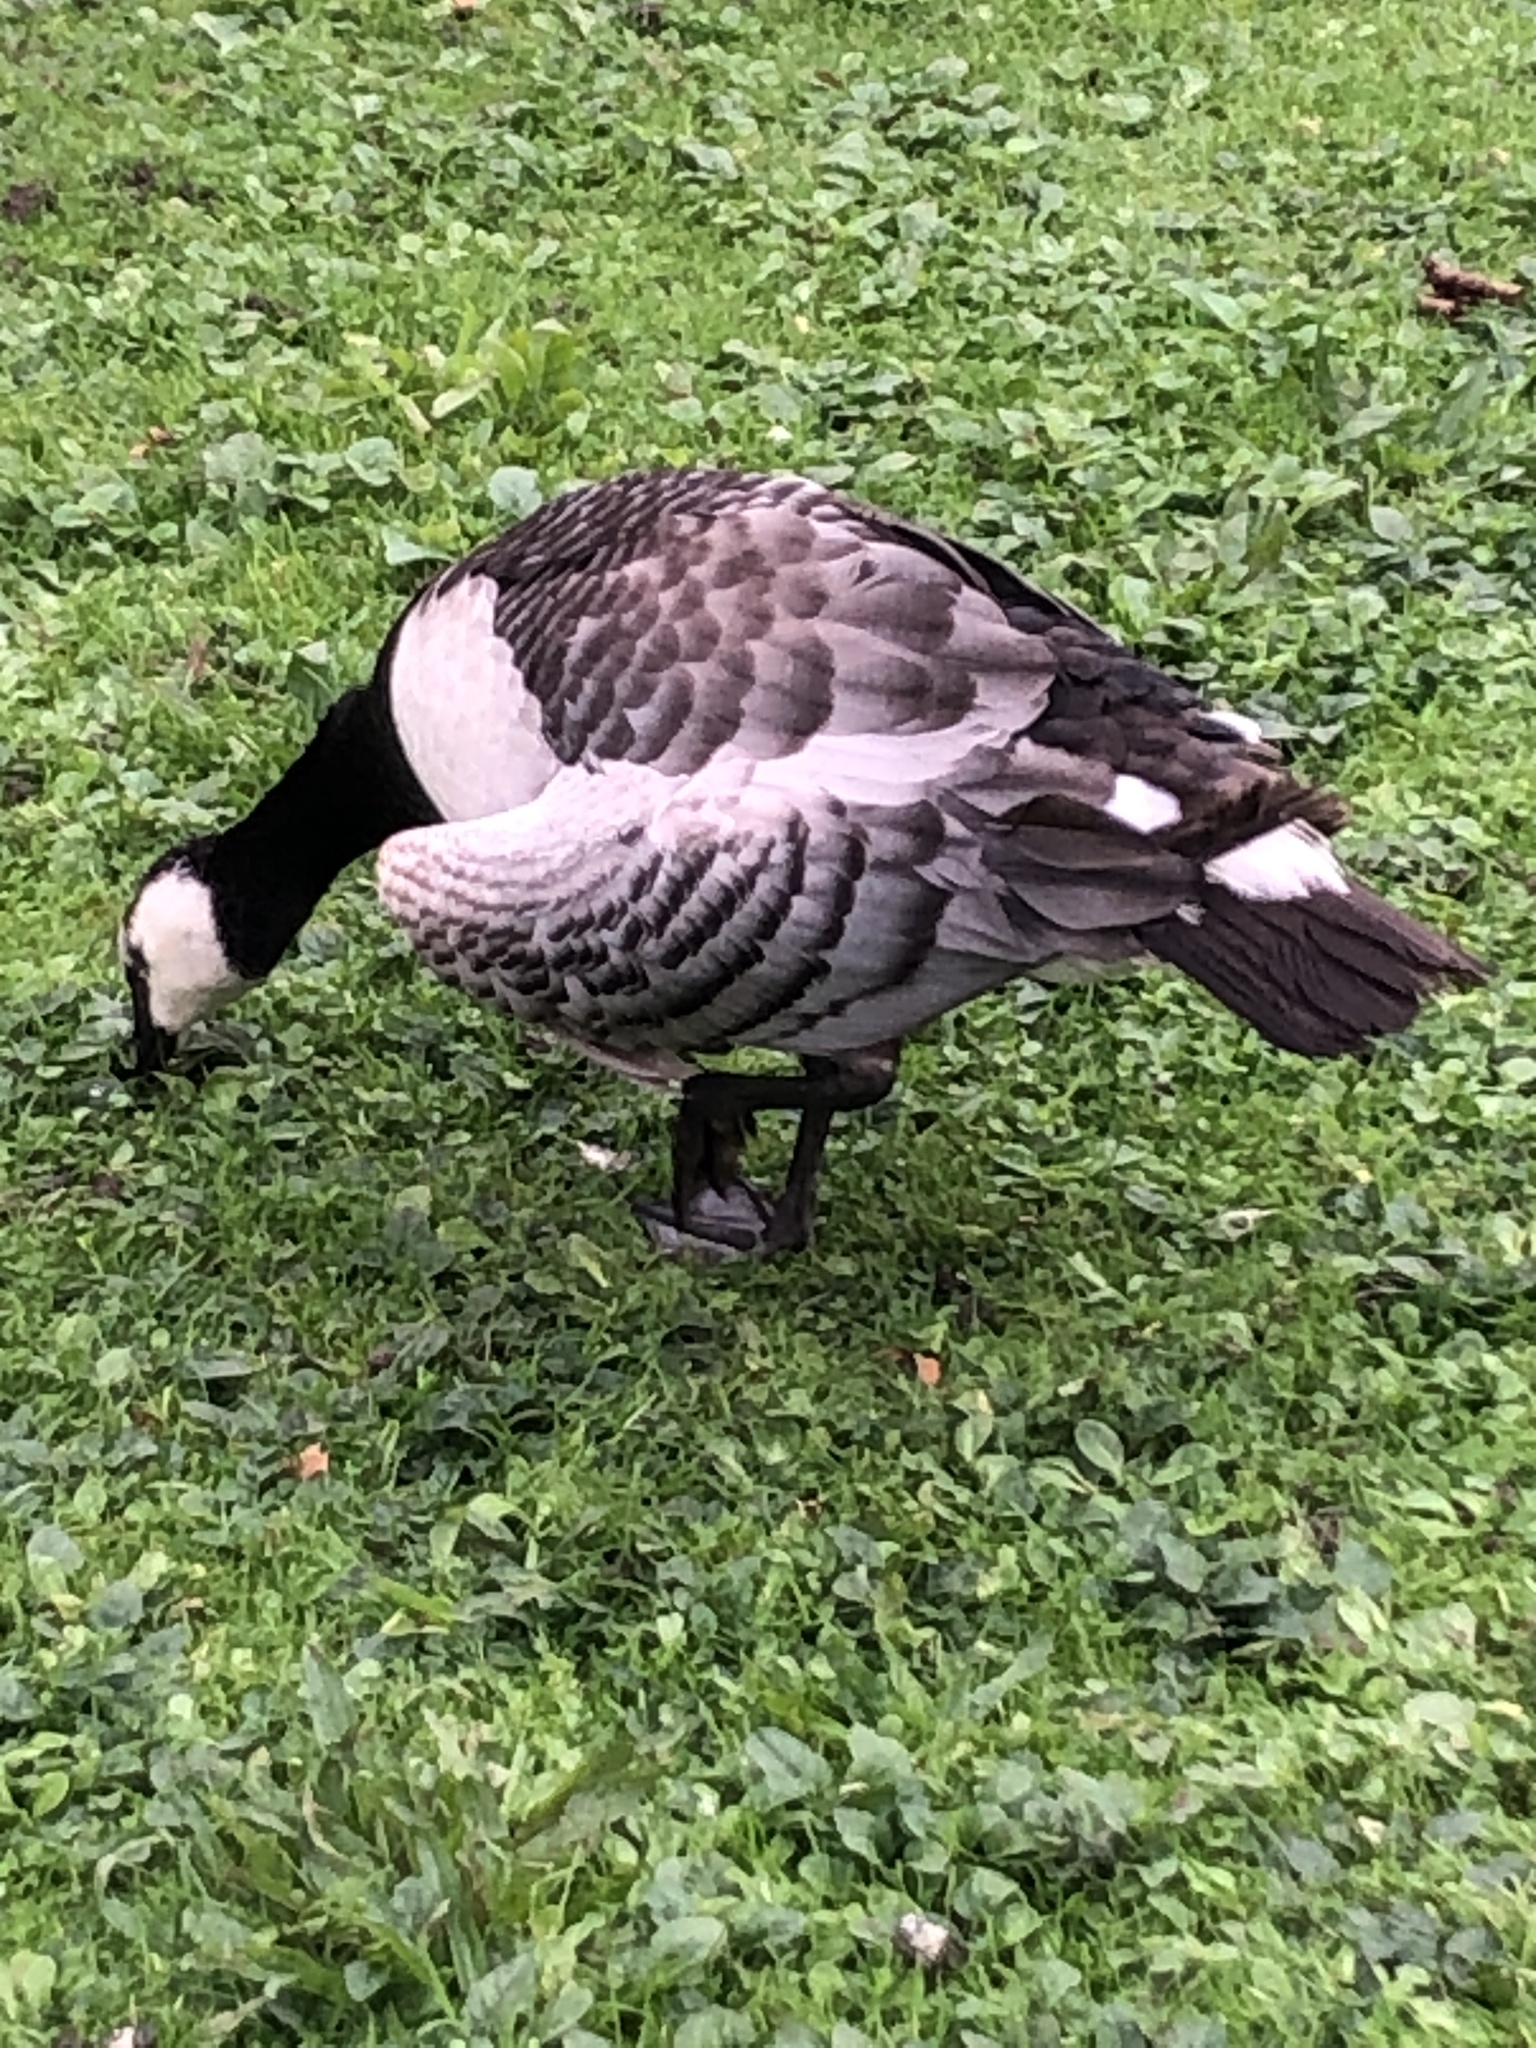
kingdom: Animalia
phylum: Chordata
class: Aves
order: Anseriformes
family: Anatidae
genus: Branta
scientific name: Branta leucopsis
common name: Barnacle goose
